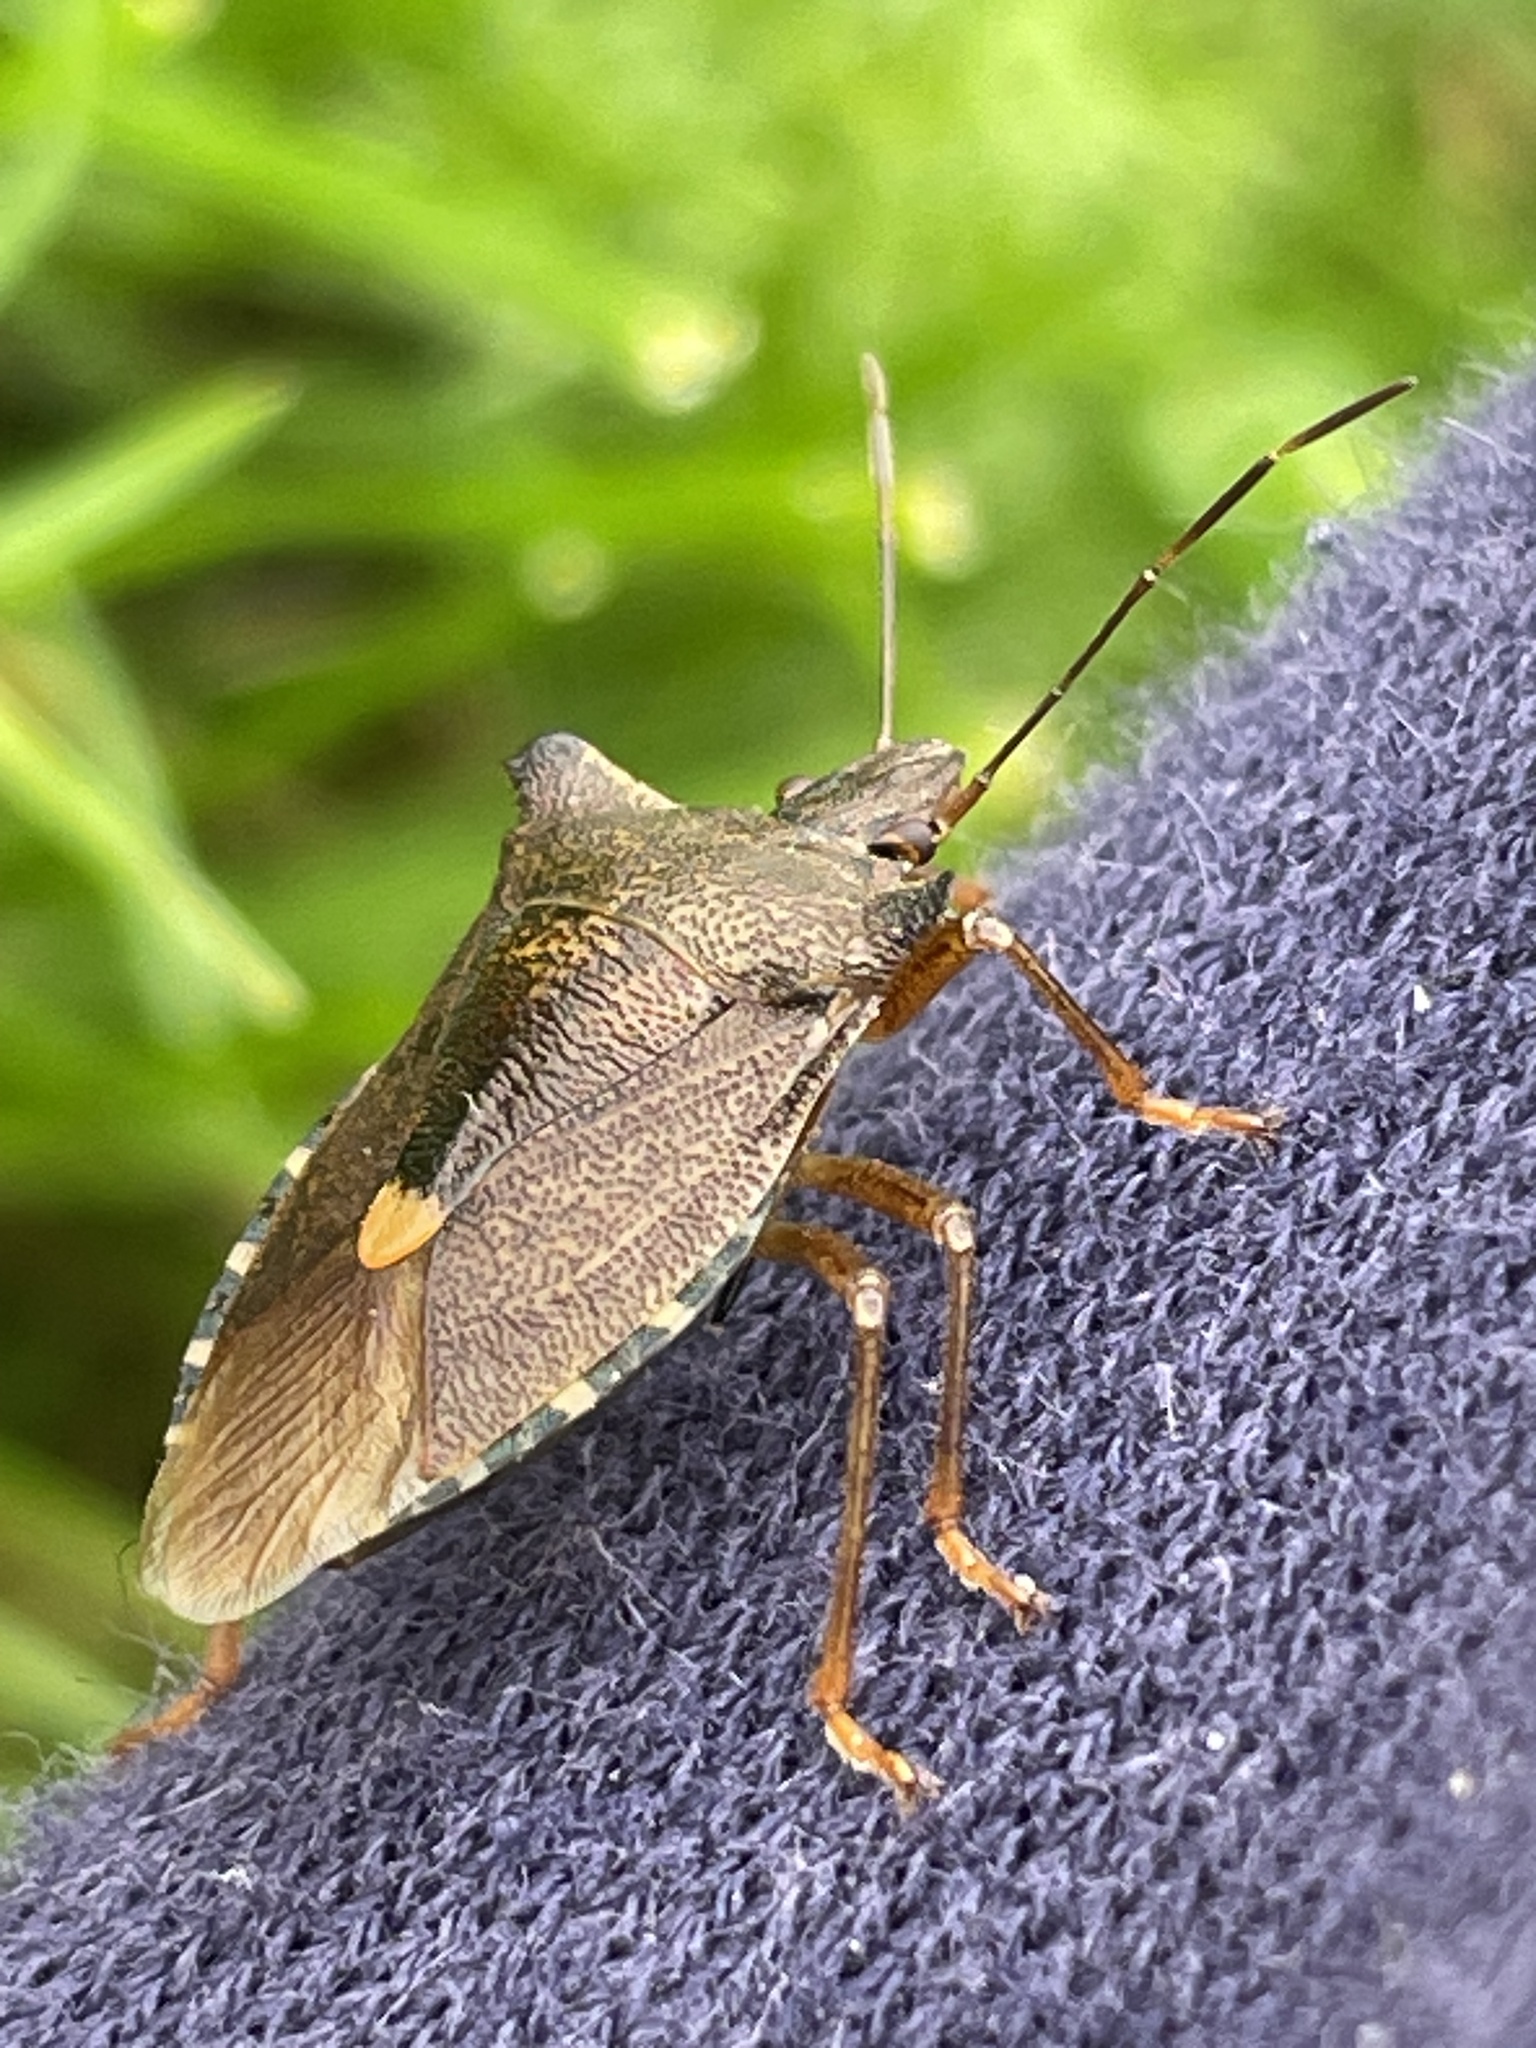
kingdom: Animalia
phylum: Arthropoda
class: Insecta
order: Hemiptera
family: Pentatomidae
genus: Pentatoma
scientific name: Pentatoma rufipes
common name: Forest bug
